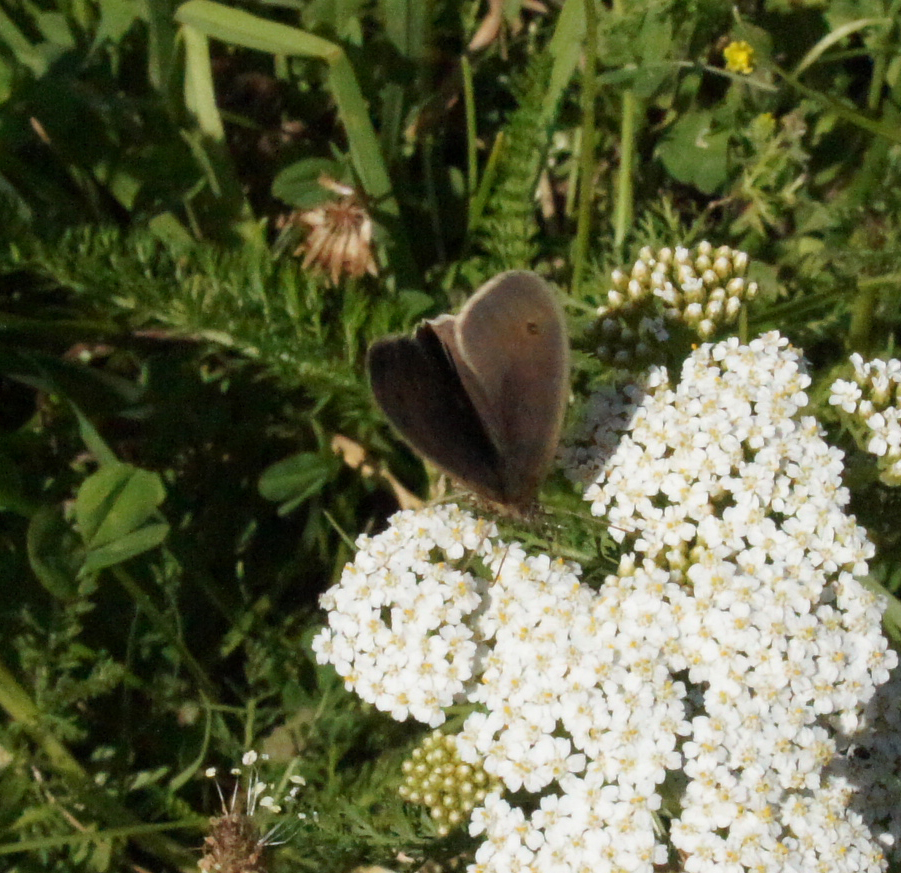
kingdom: Animalia
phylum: Arthropoda
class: Insecta
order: Lepidoptera
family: Nymphalidae
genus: Maniola
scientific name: Maniola jurtina
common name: Meadow brown
